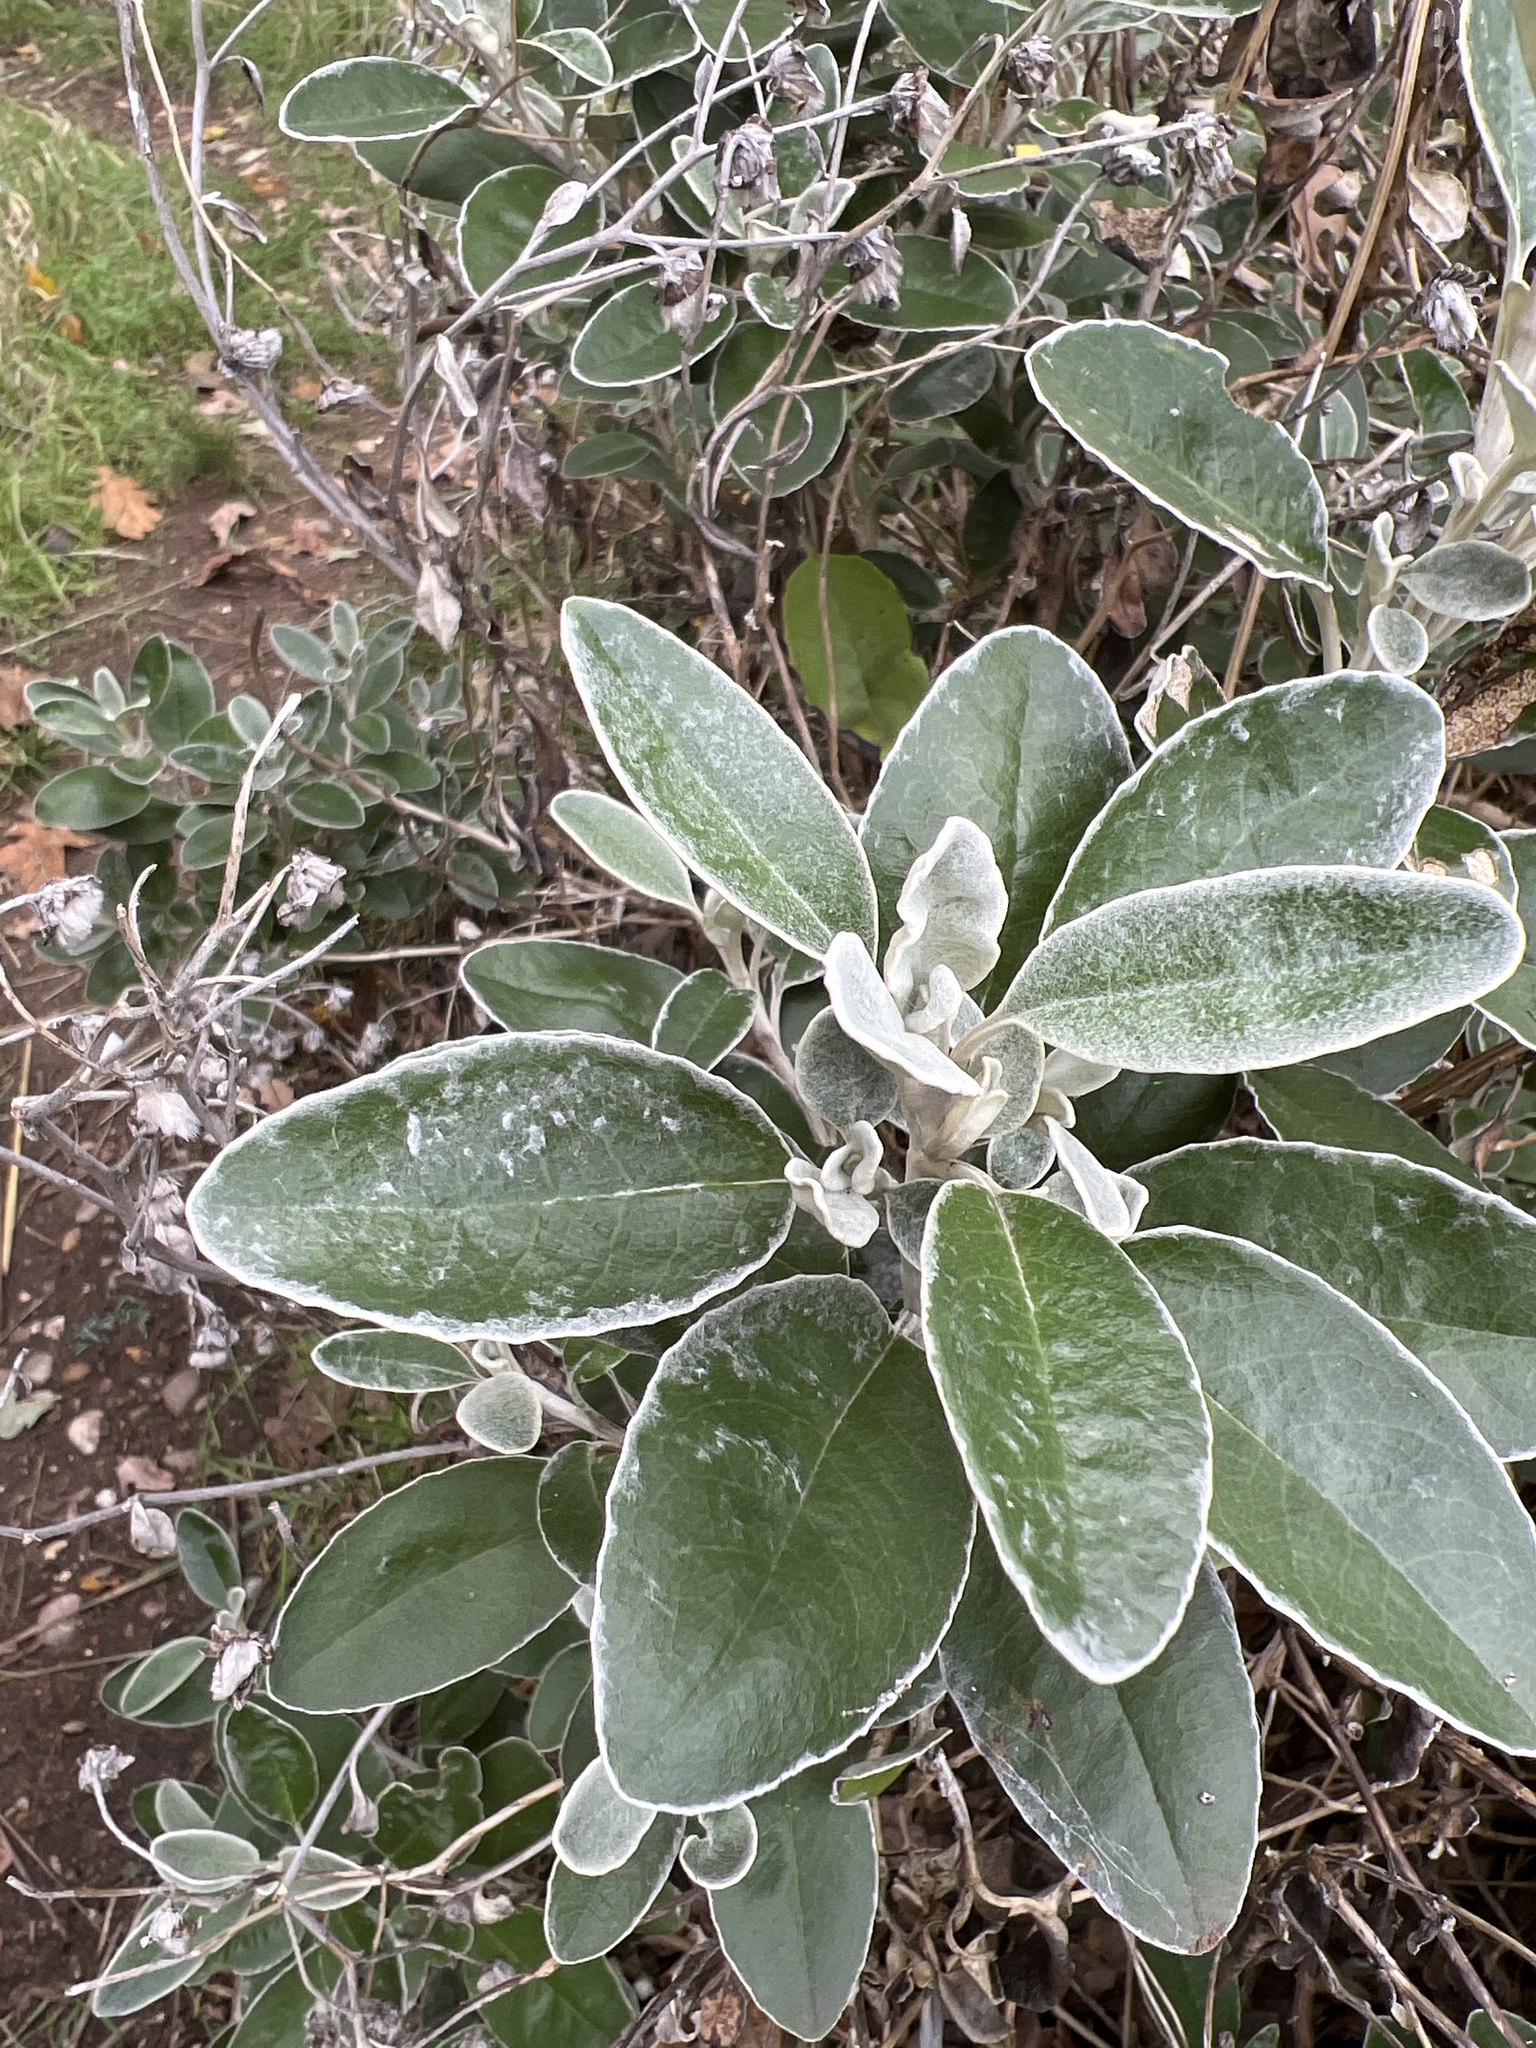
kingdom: Plantae
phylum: Tracheophyta
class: Magnoliopsida
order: Asterales
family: Asteraceae
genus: Brachyglottis
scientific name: Brachyglottis jubar
